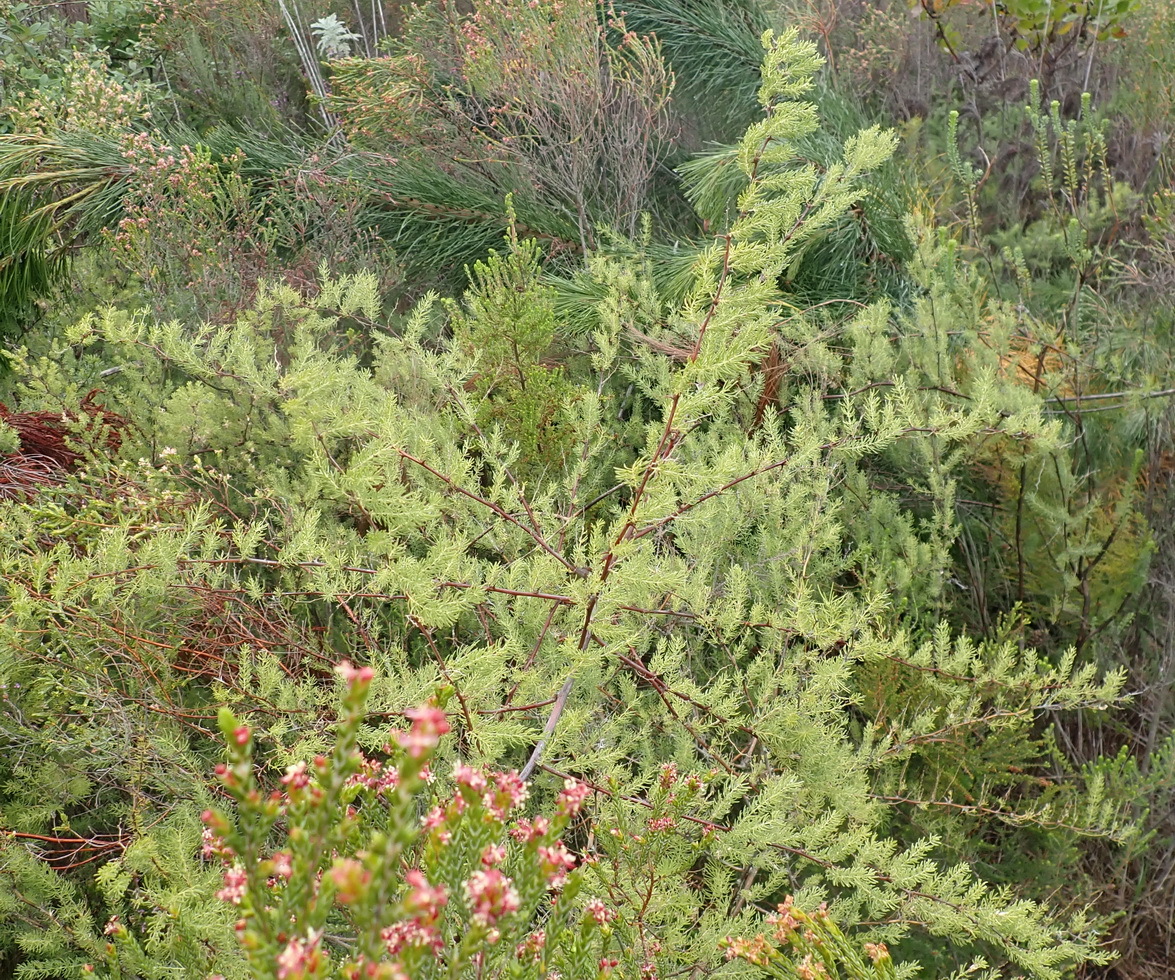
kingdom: Plantae
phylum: Tracheophyta
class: Liliopsida
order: Asparagales
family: Asparagaceae
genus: Asparagus
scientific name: Asparagus rubicundus
